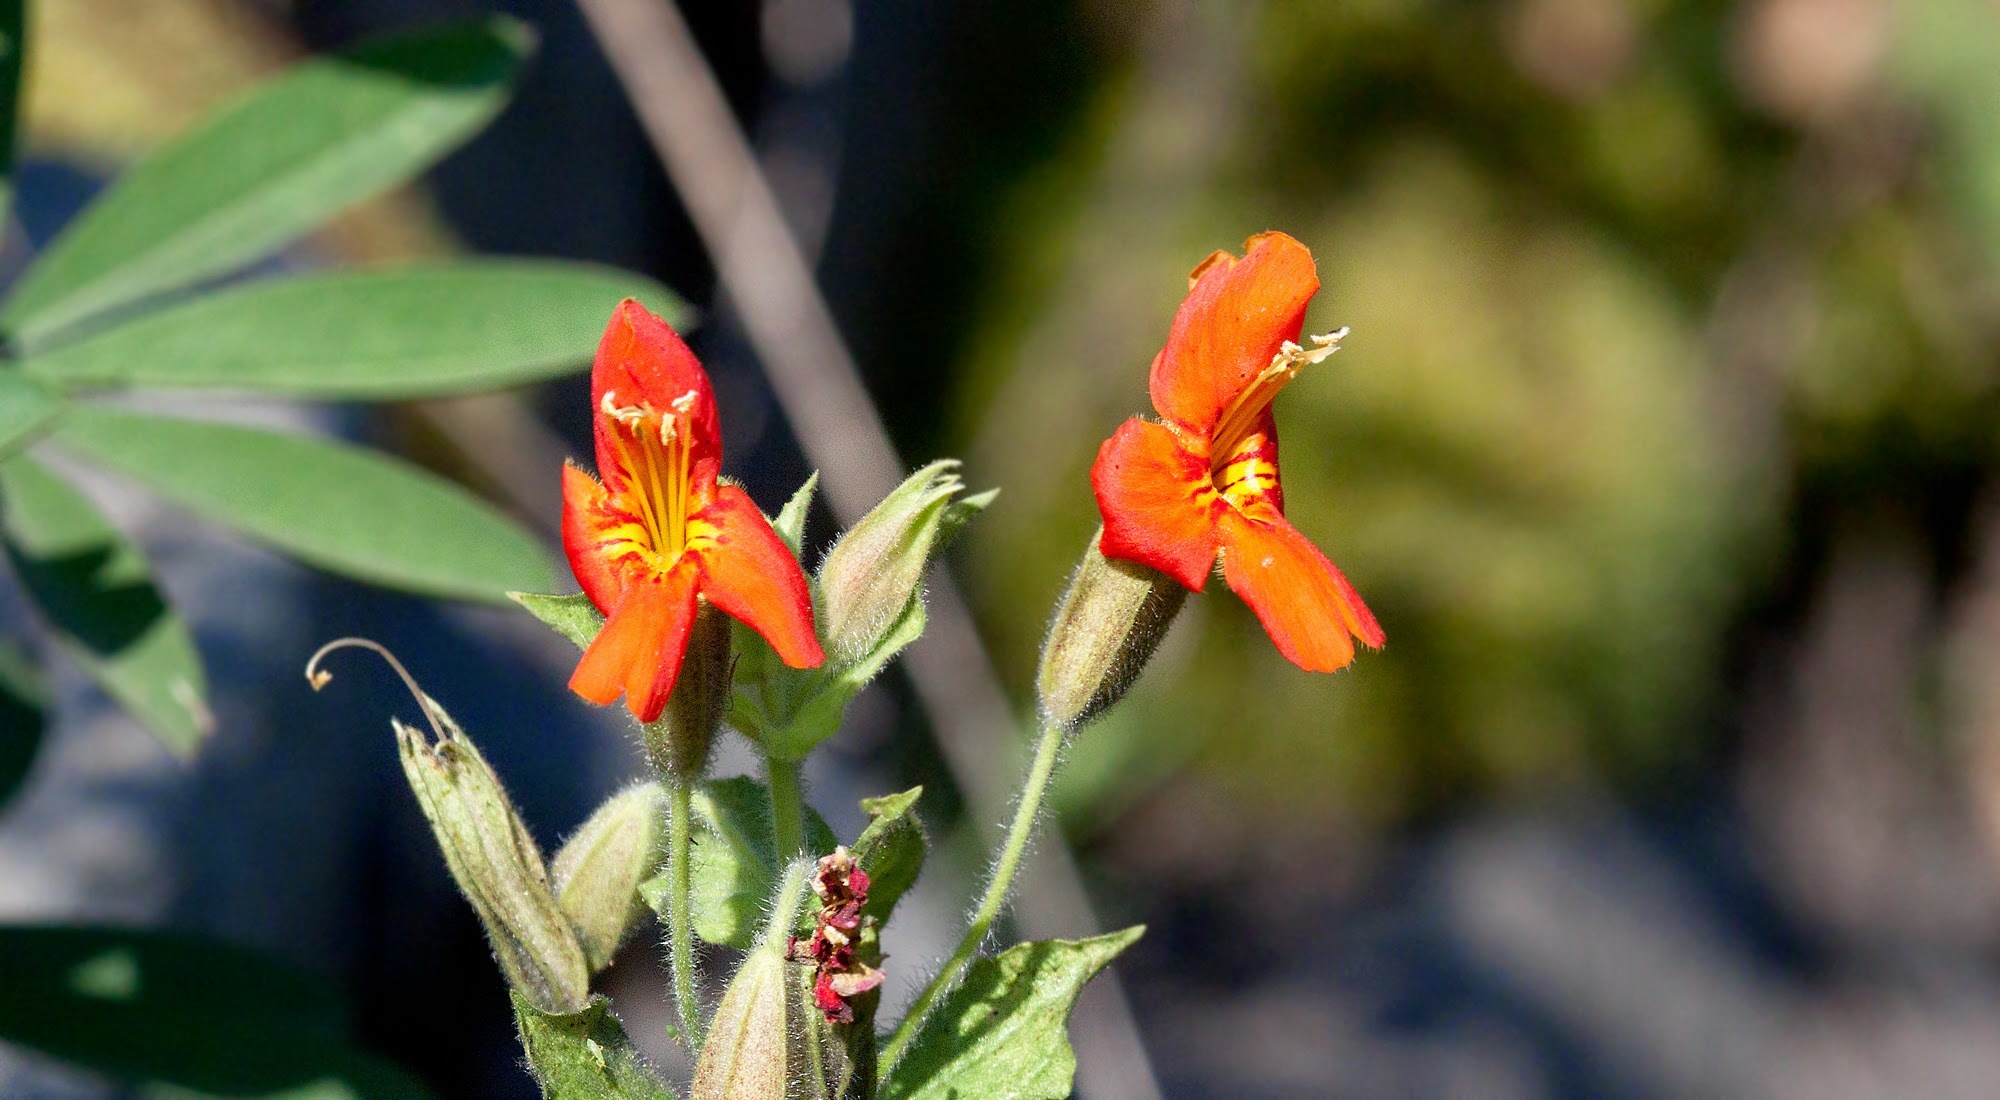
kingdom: Plantae
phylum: Tracheophyta
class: Magnoliopsida
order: Lamiales
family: Phrymaceae
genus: Erythranthe
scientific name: Erythranthe cardinalis
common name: Scarlet monkey-flower
